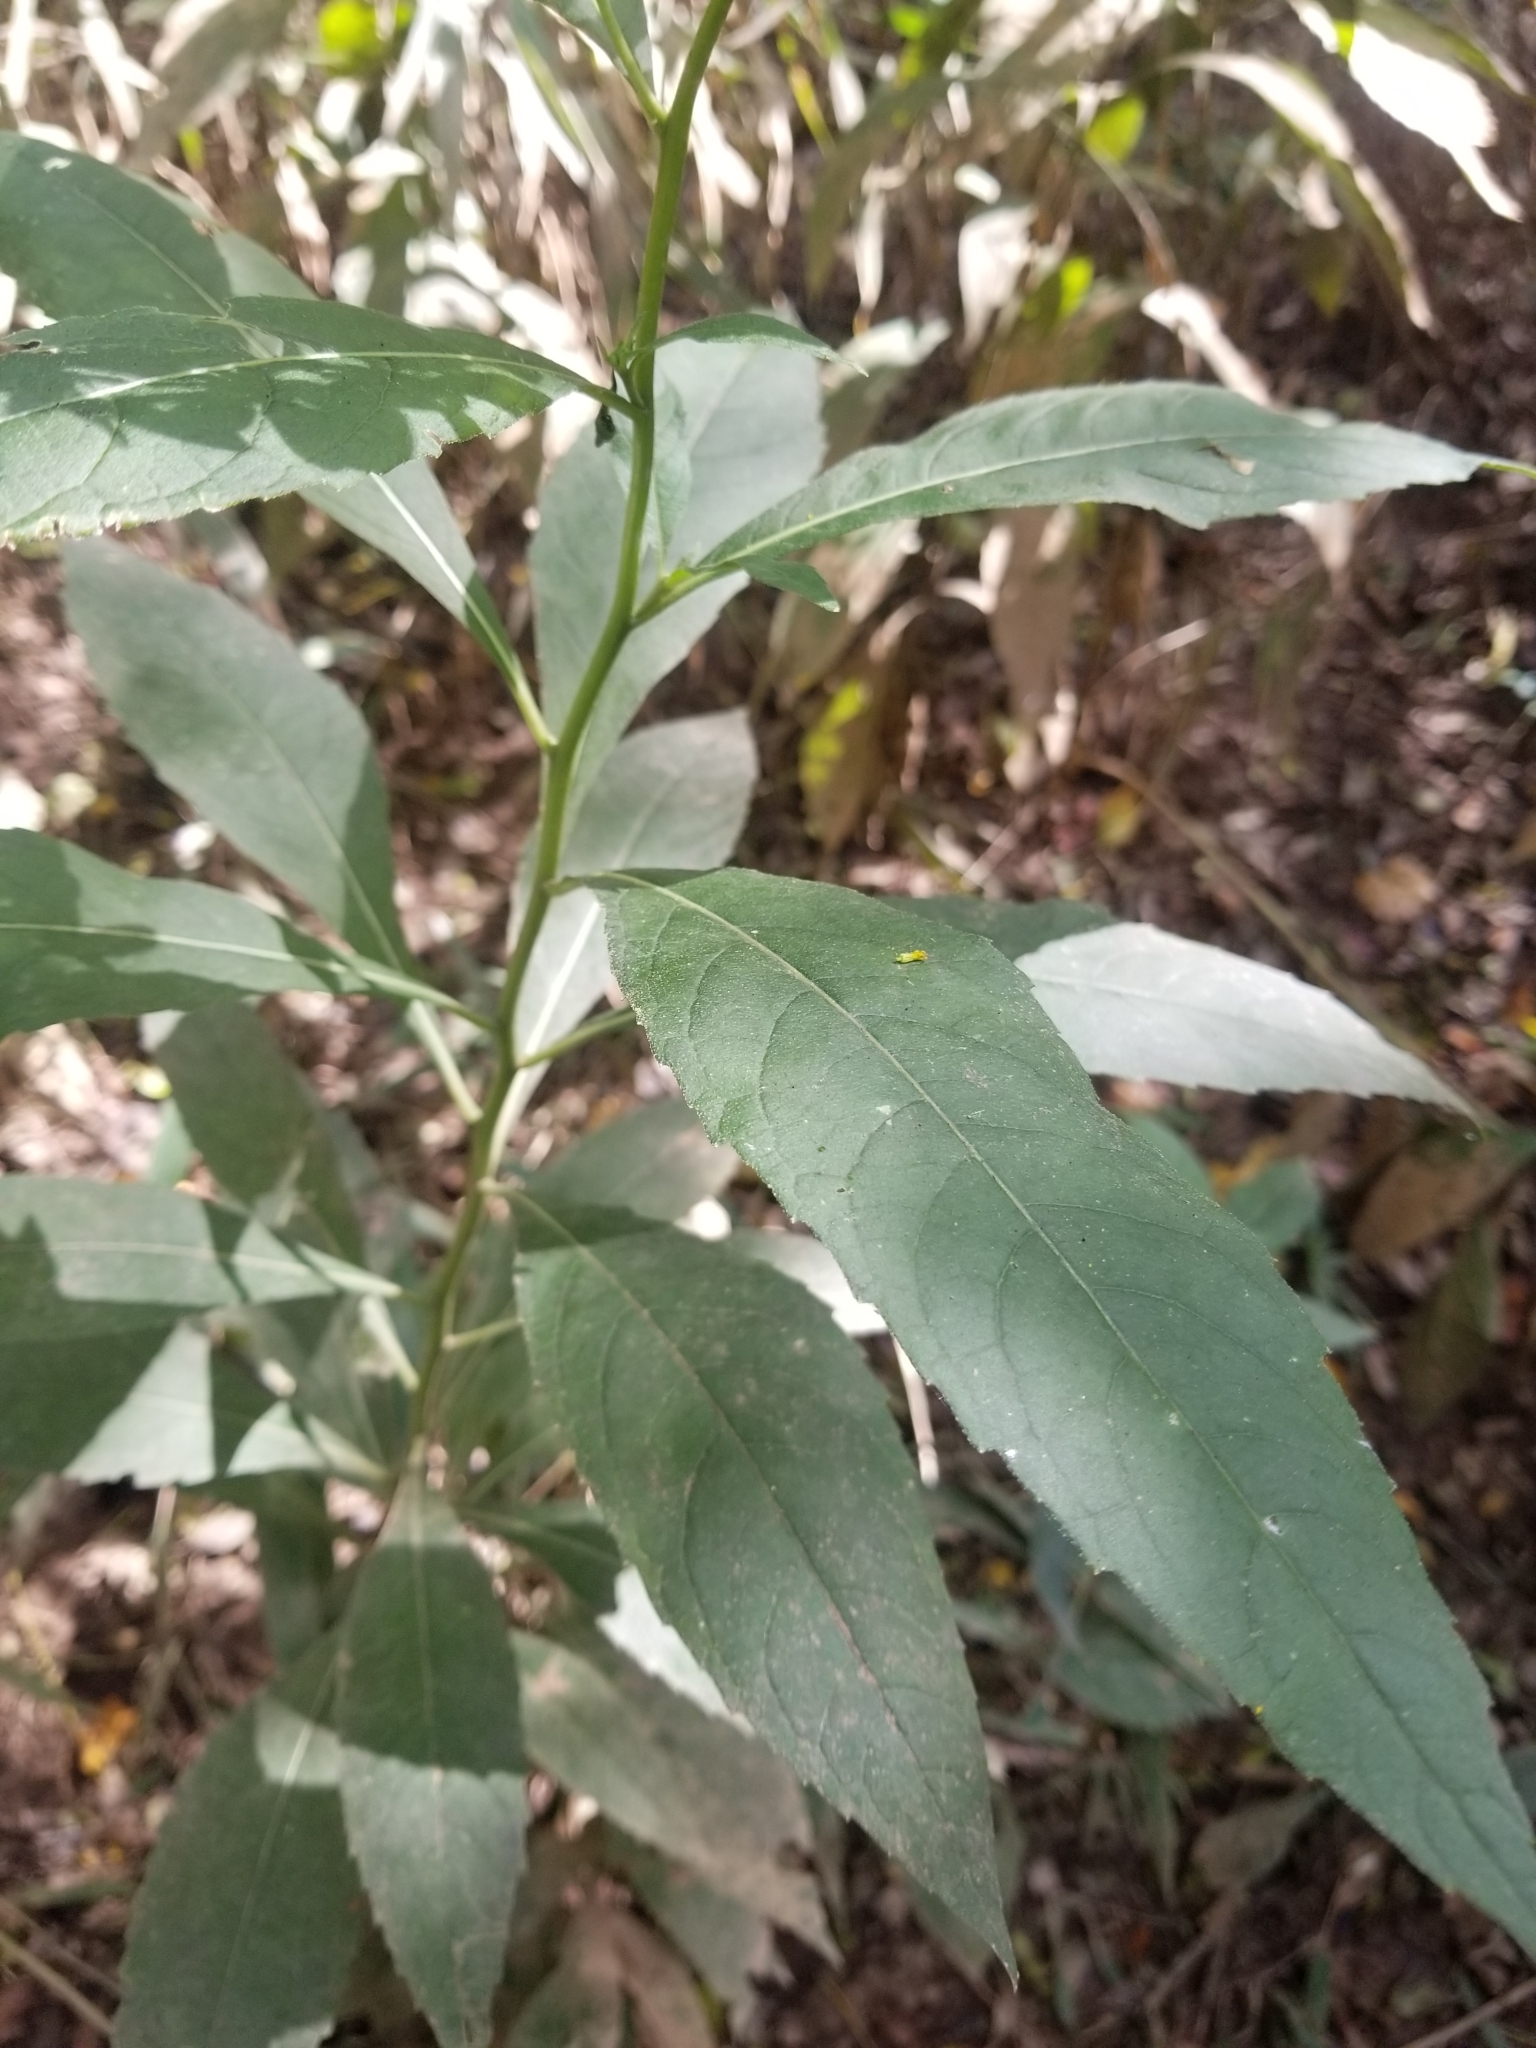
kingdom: Plantae
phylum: Tracheophyta
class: Magnoliopsida
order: Asterales
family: Asteraceae
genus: Verbesina
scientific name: Verbesina alternifolia
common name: Wingstem
